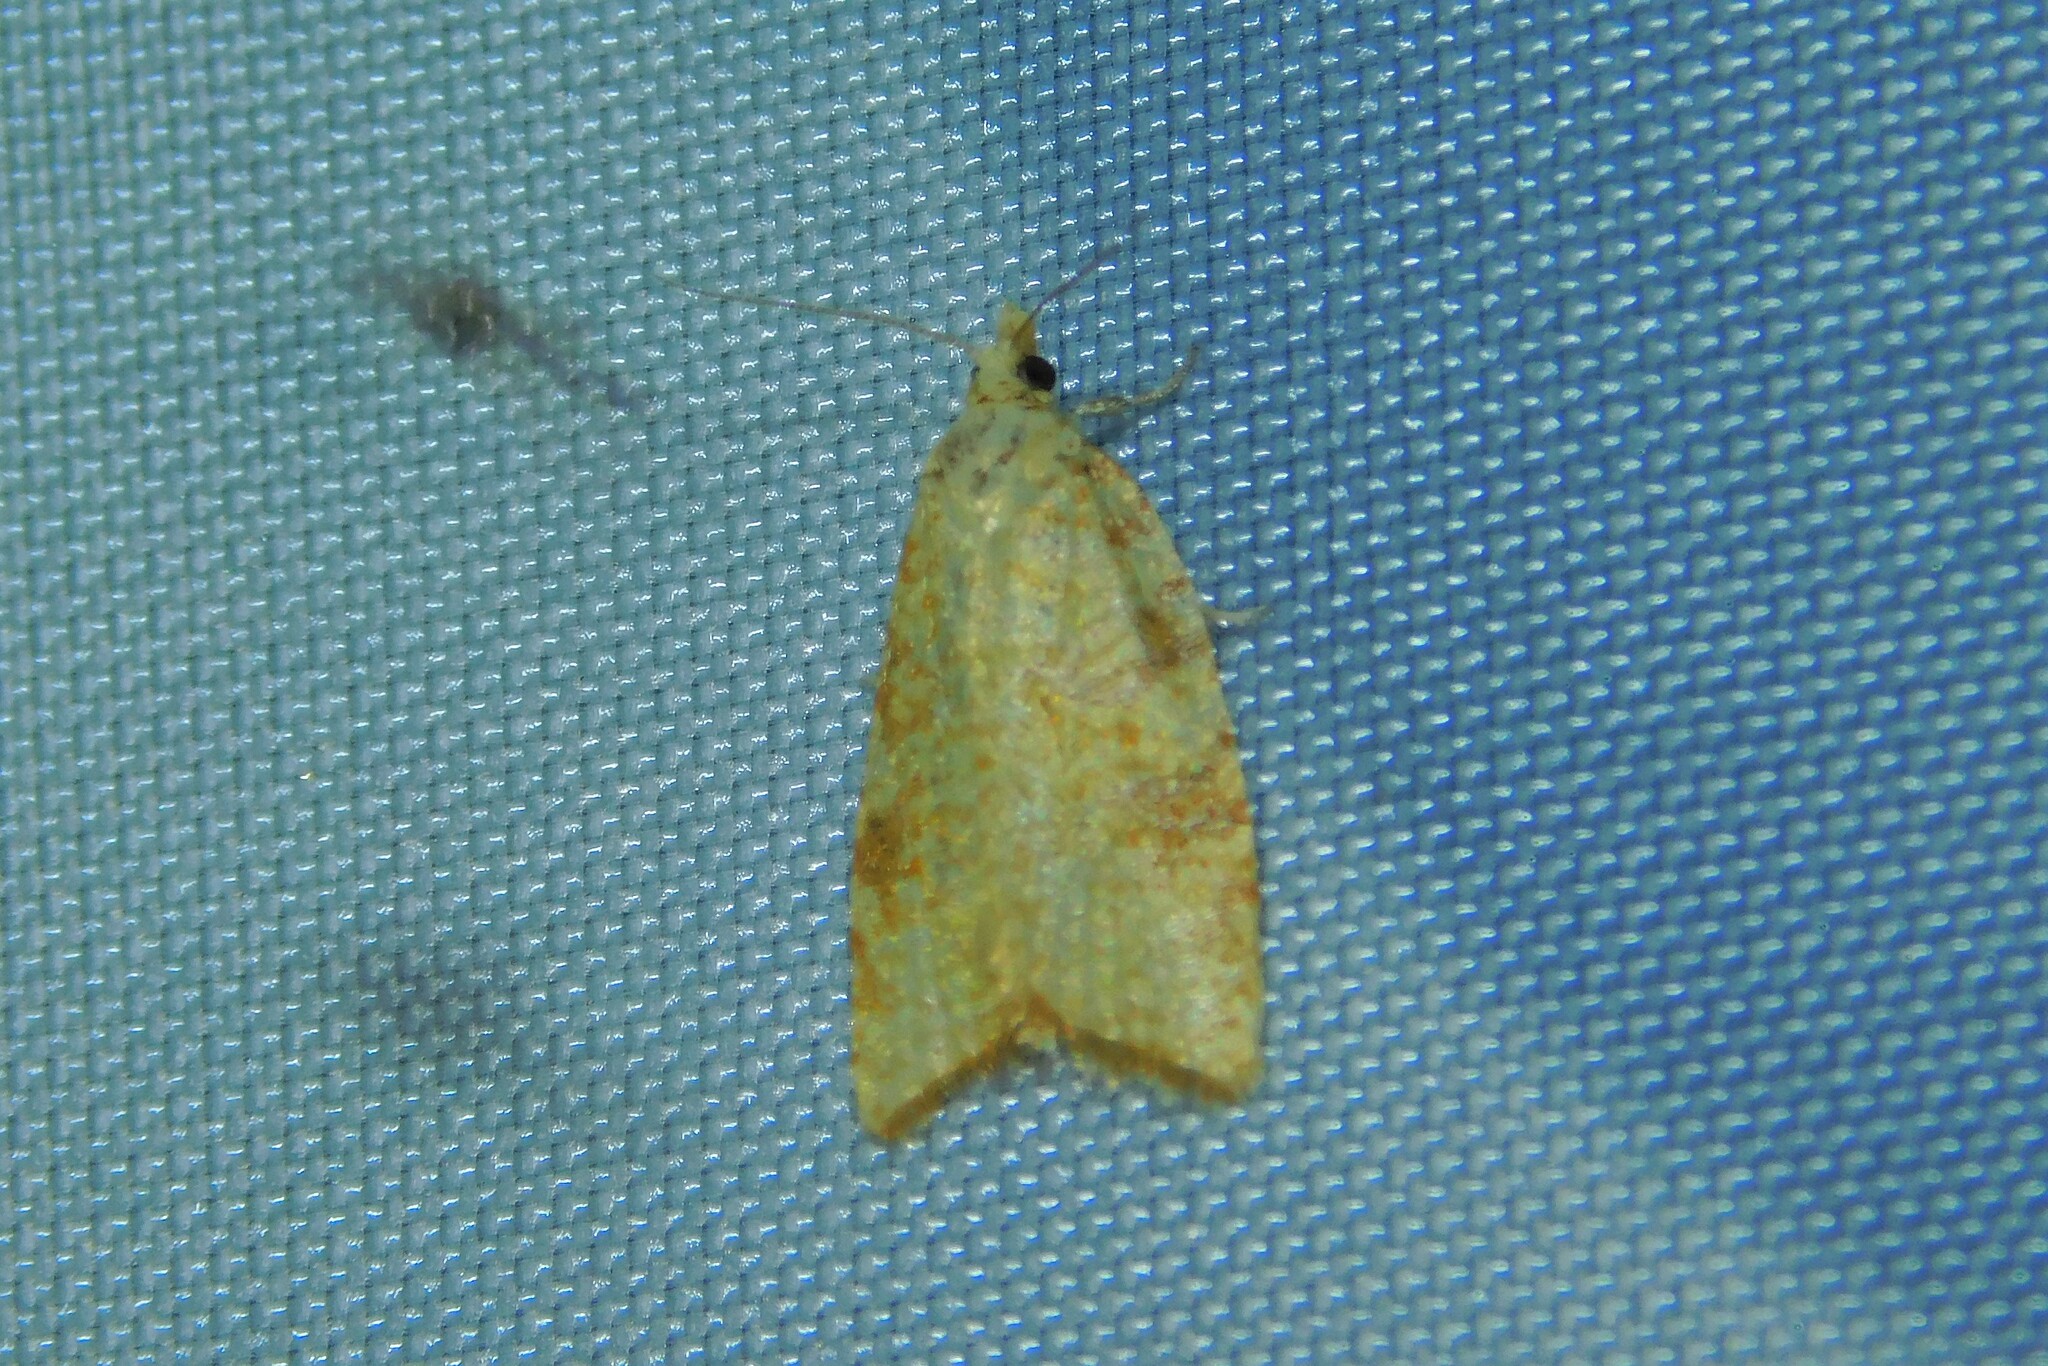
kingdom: Animalia
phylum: Arthropoda
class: Insecta
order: Lepidoptera
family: Tortricidae
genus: Aleimma
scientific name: Aleimma loeflingiana
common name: Yellow oak button
